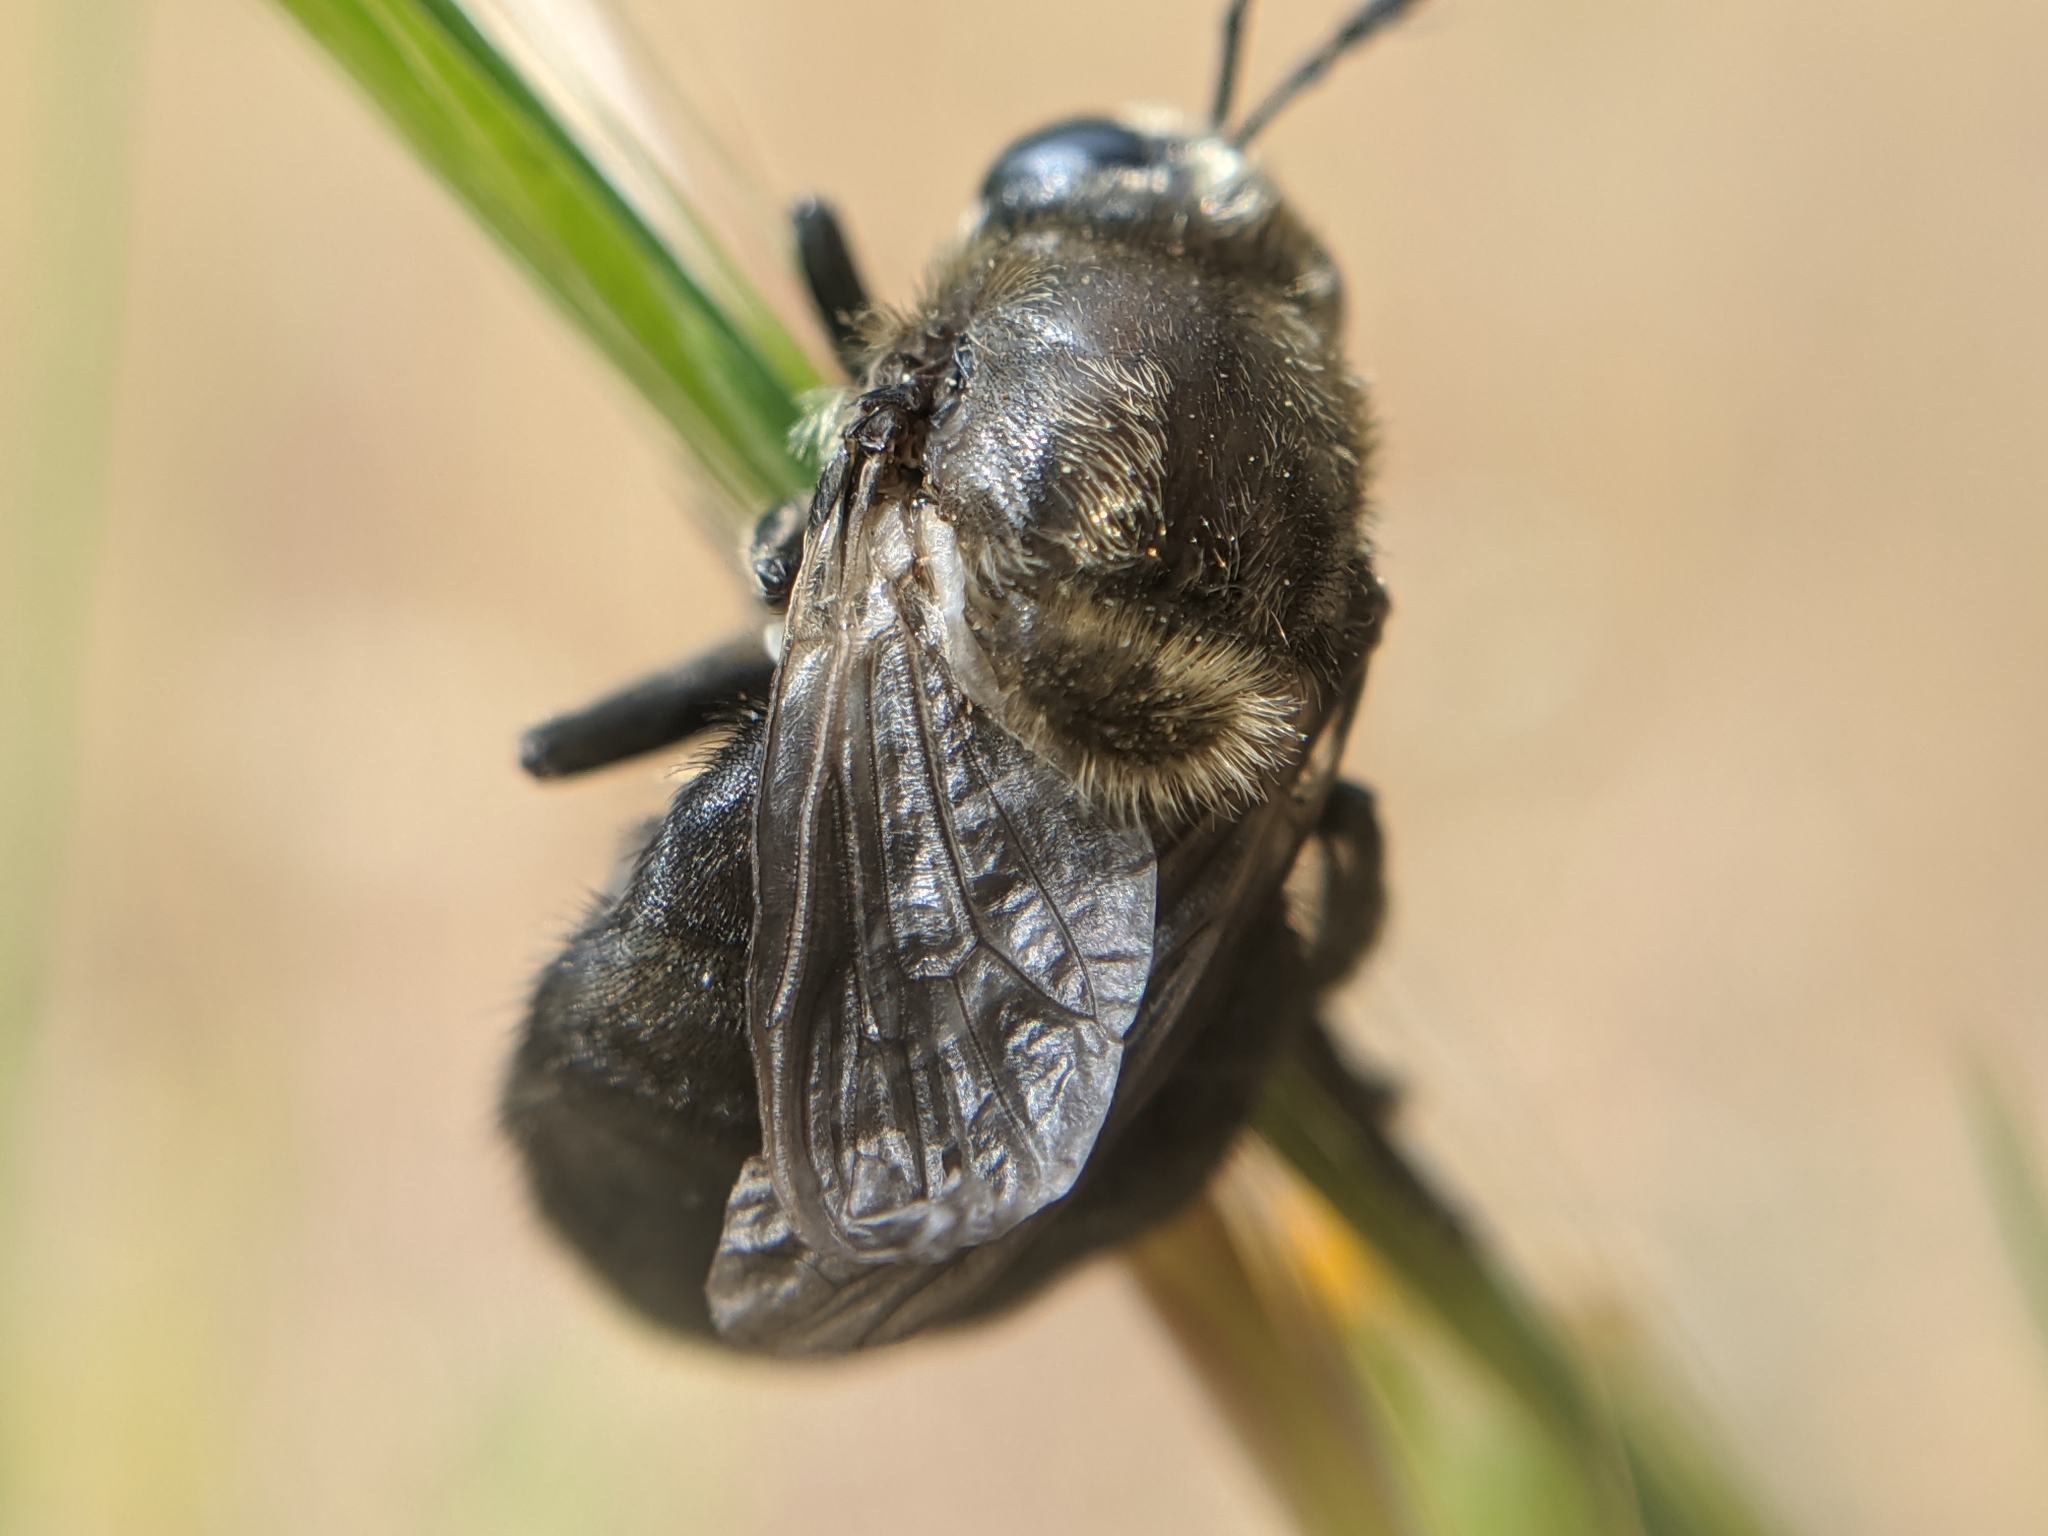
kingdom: Animalia
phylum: Arthropoda
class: Insecta
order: Diptera
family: Syrphidae
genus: Microdon
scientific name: Microdon lanceolatus
